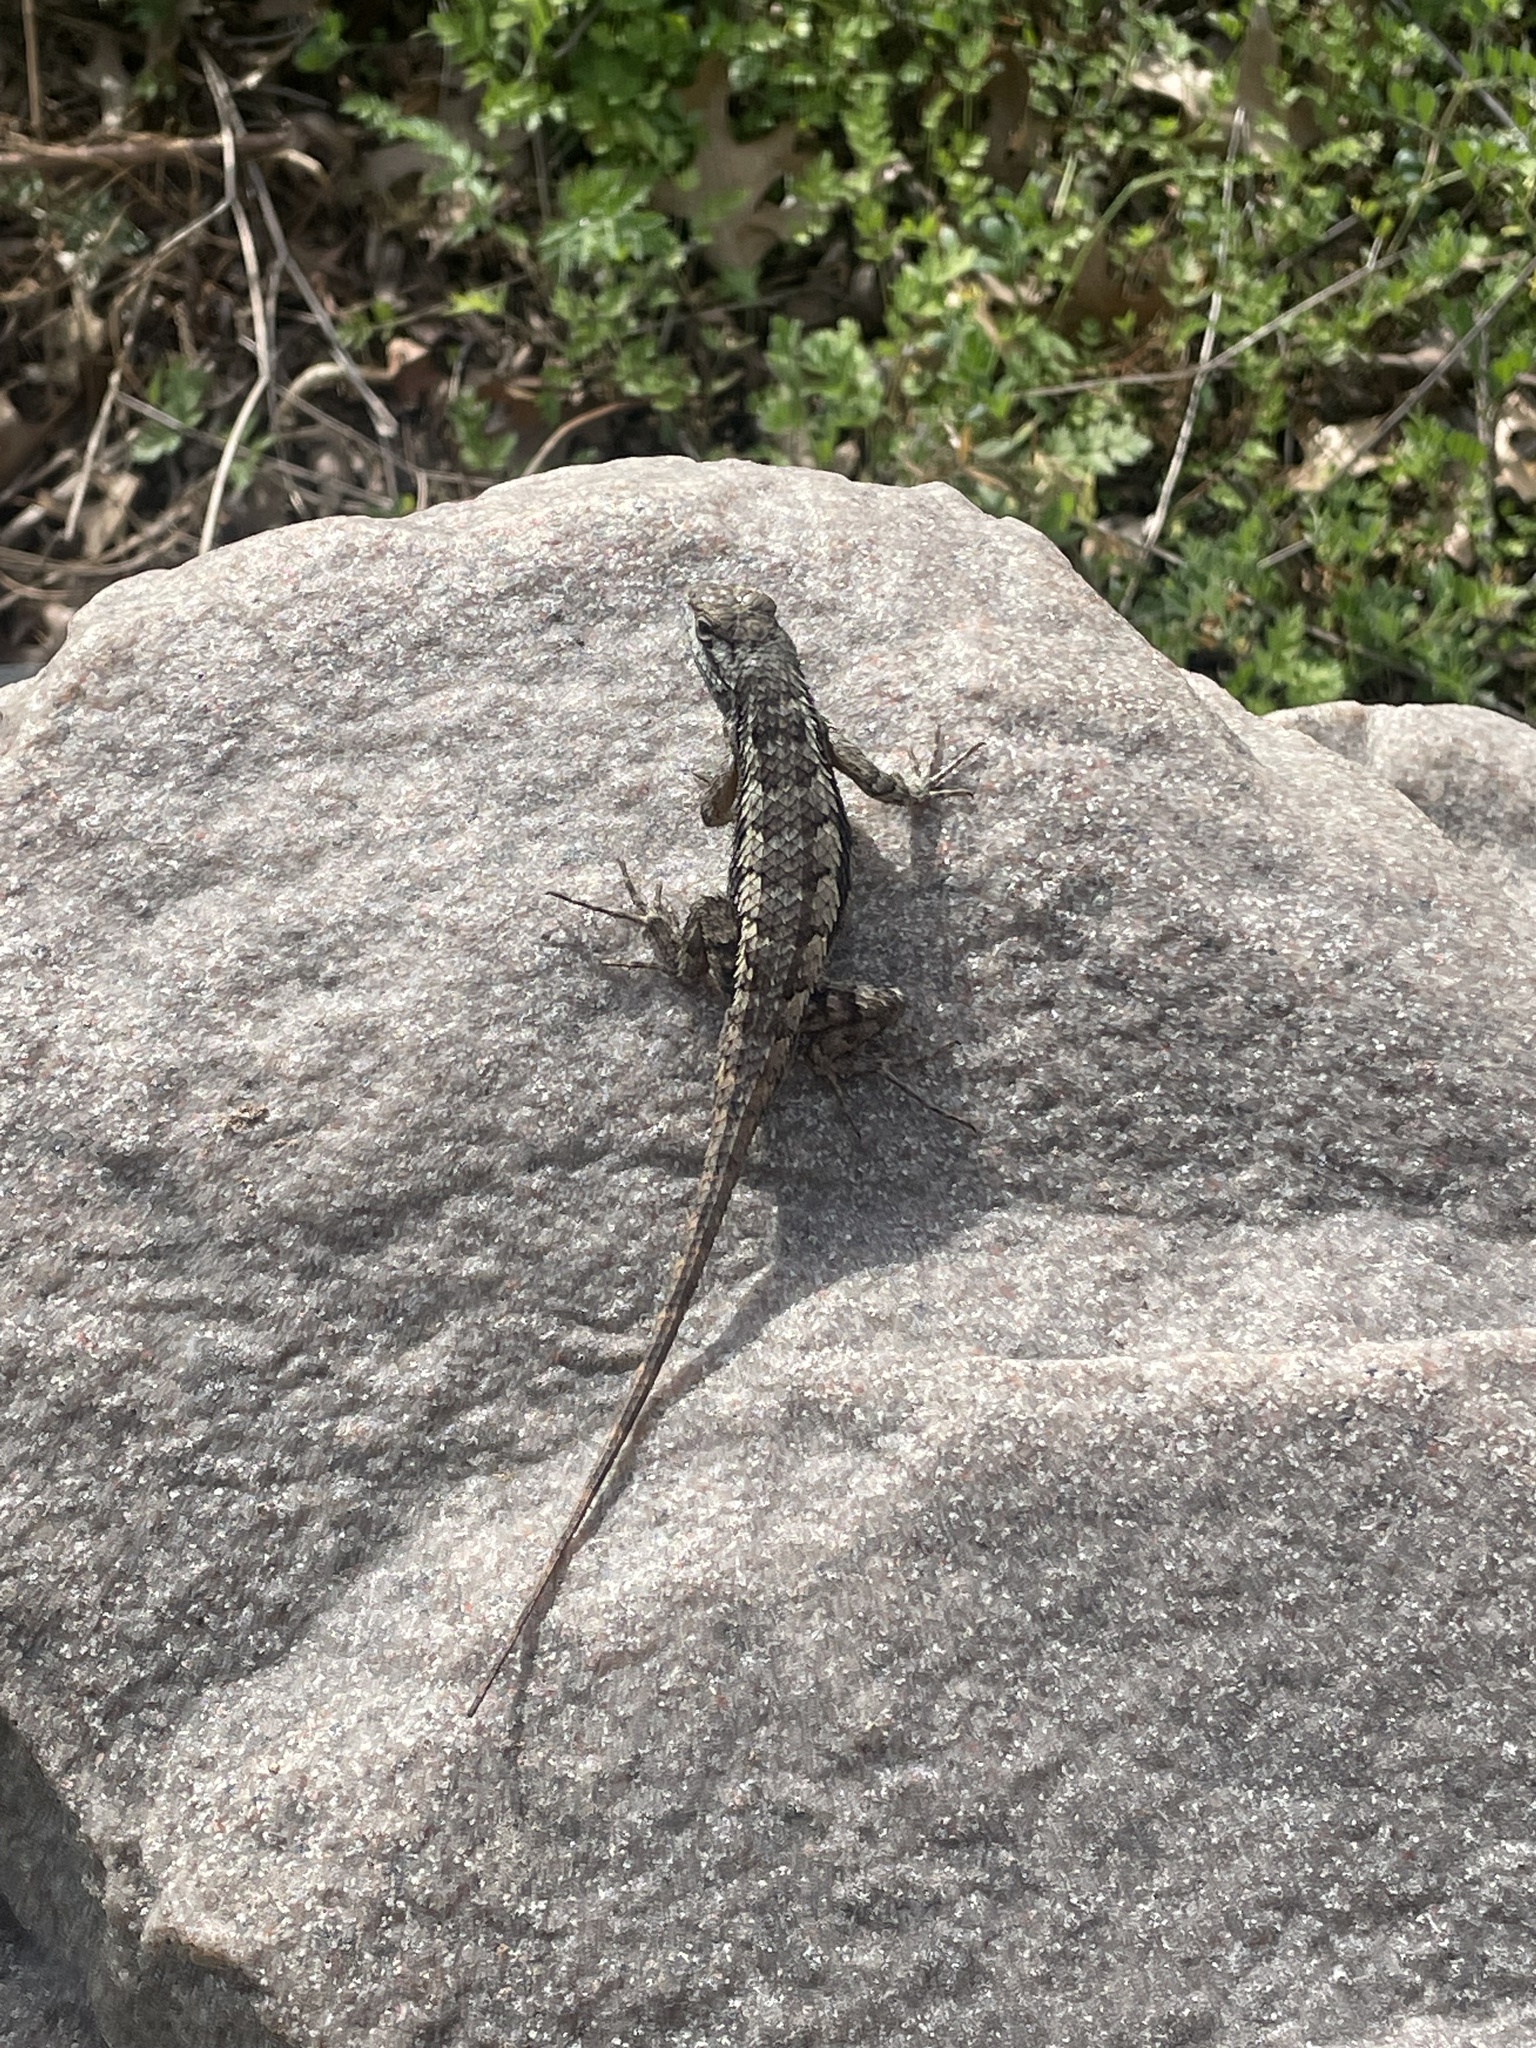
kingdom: Animalia
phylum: Chordata
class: Squamata
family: Phrynosomatidae
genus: Sceloporus
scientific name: Sceloporus olivaceus
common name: Texas spiny lizard
